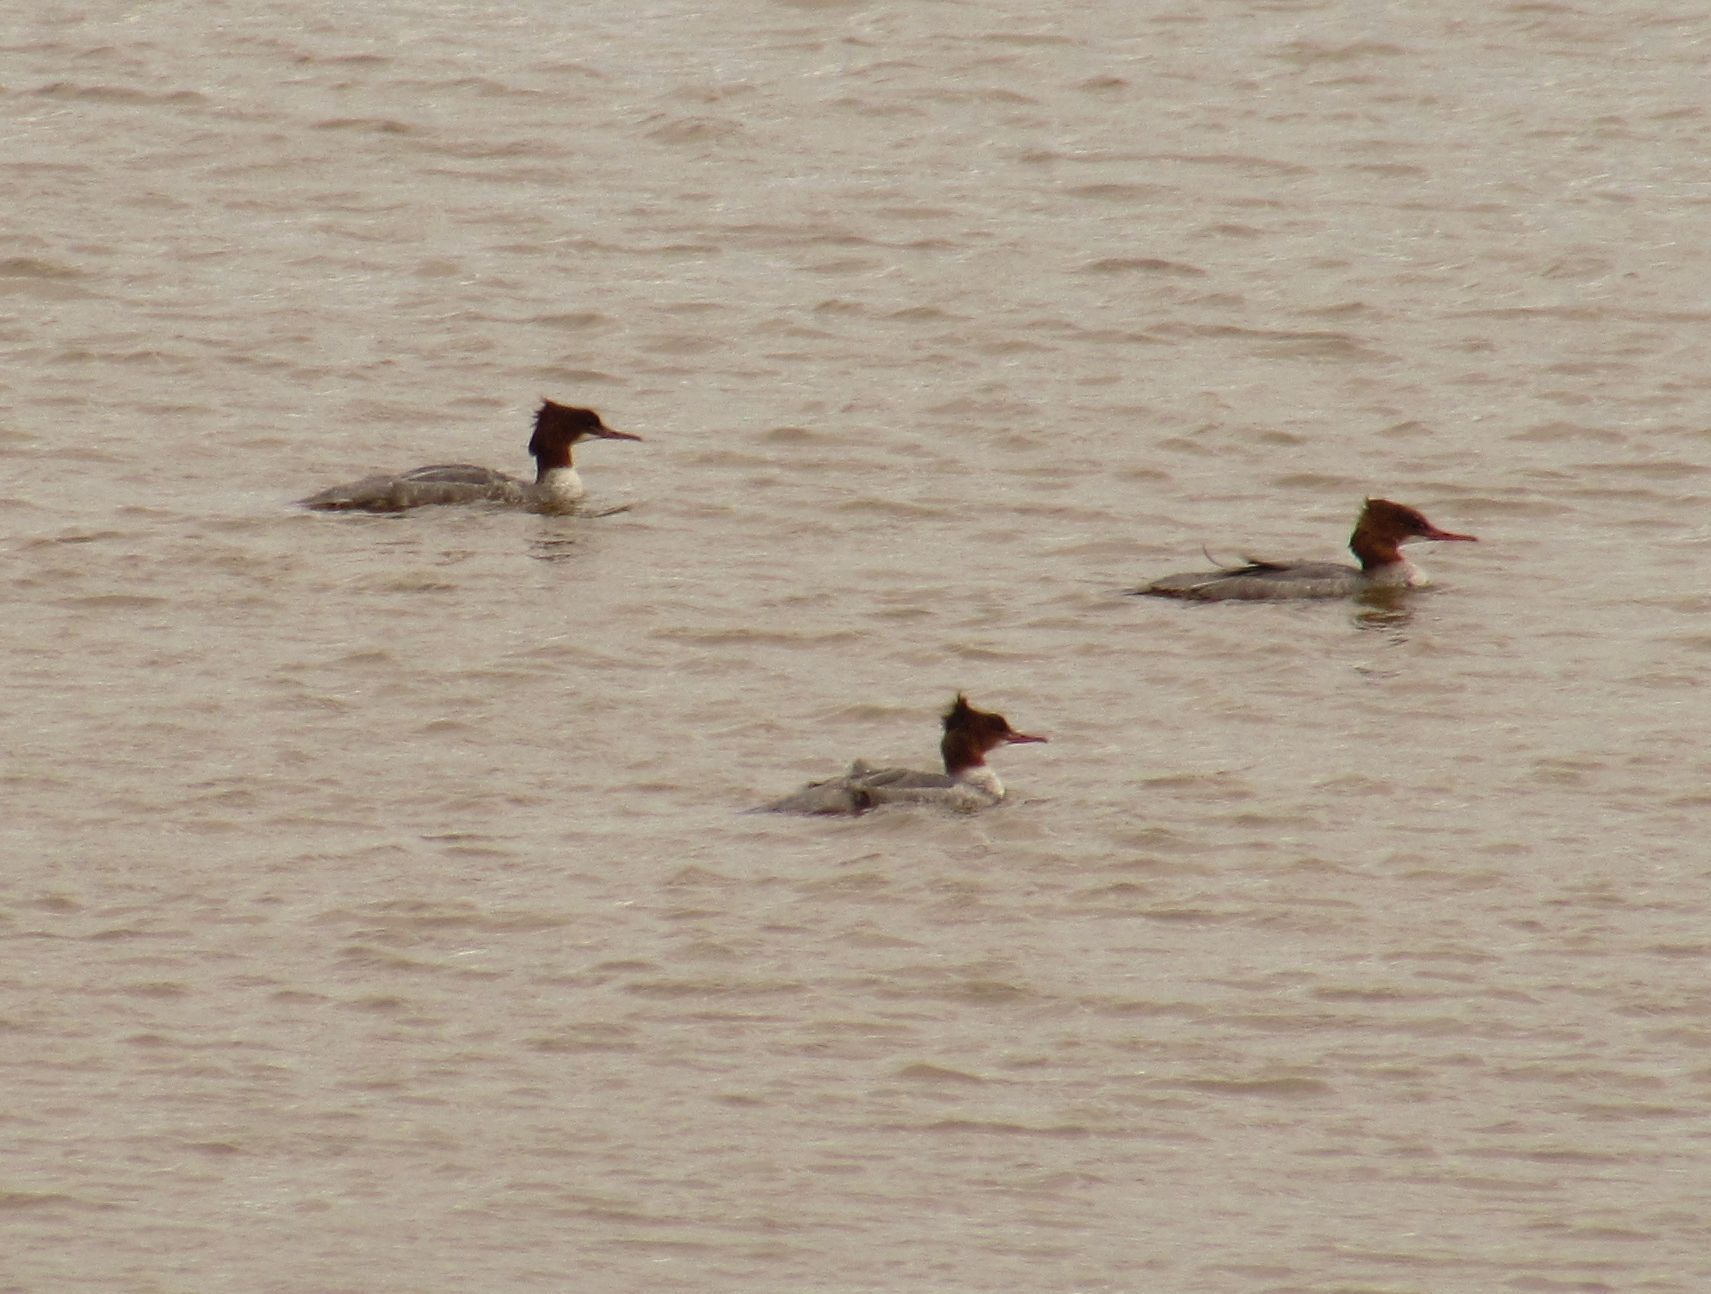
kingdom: Animalia
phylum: Chordata
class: Aves
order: Anseriformes
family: Anatidae
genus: Mergus
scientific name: Mergus merganser
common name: Common merganser
